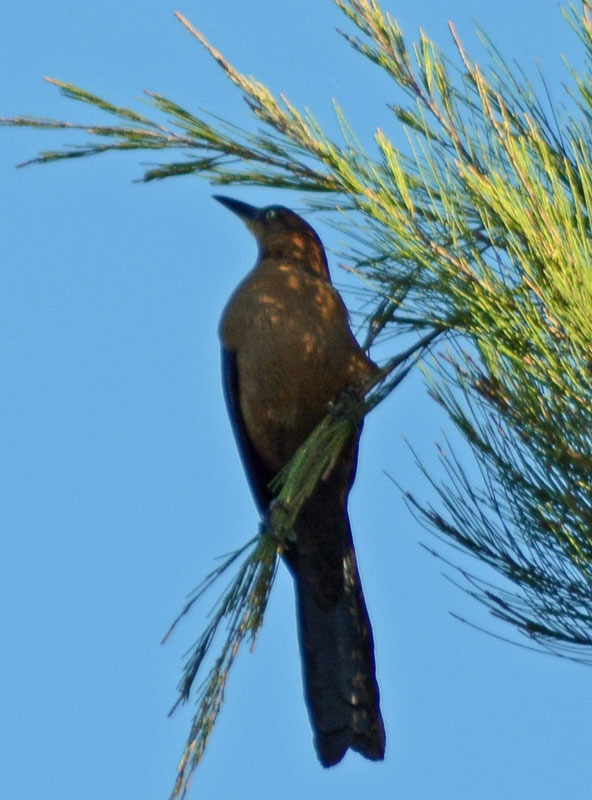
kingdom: Animalia
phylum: Chordata
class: Aves
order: Passeriformes
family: Icteridae
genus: Quiscalus
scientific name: Quiscalus mexicanus
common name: Great-tailed grackle
